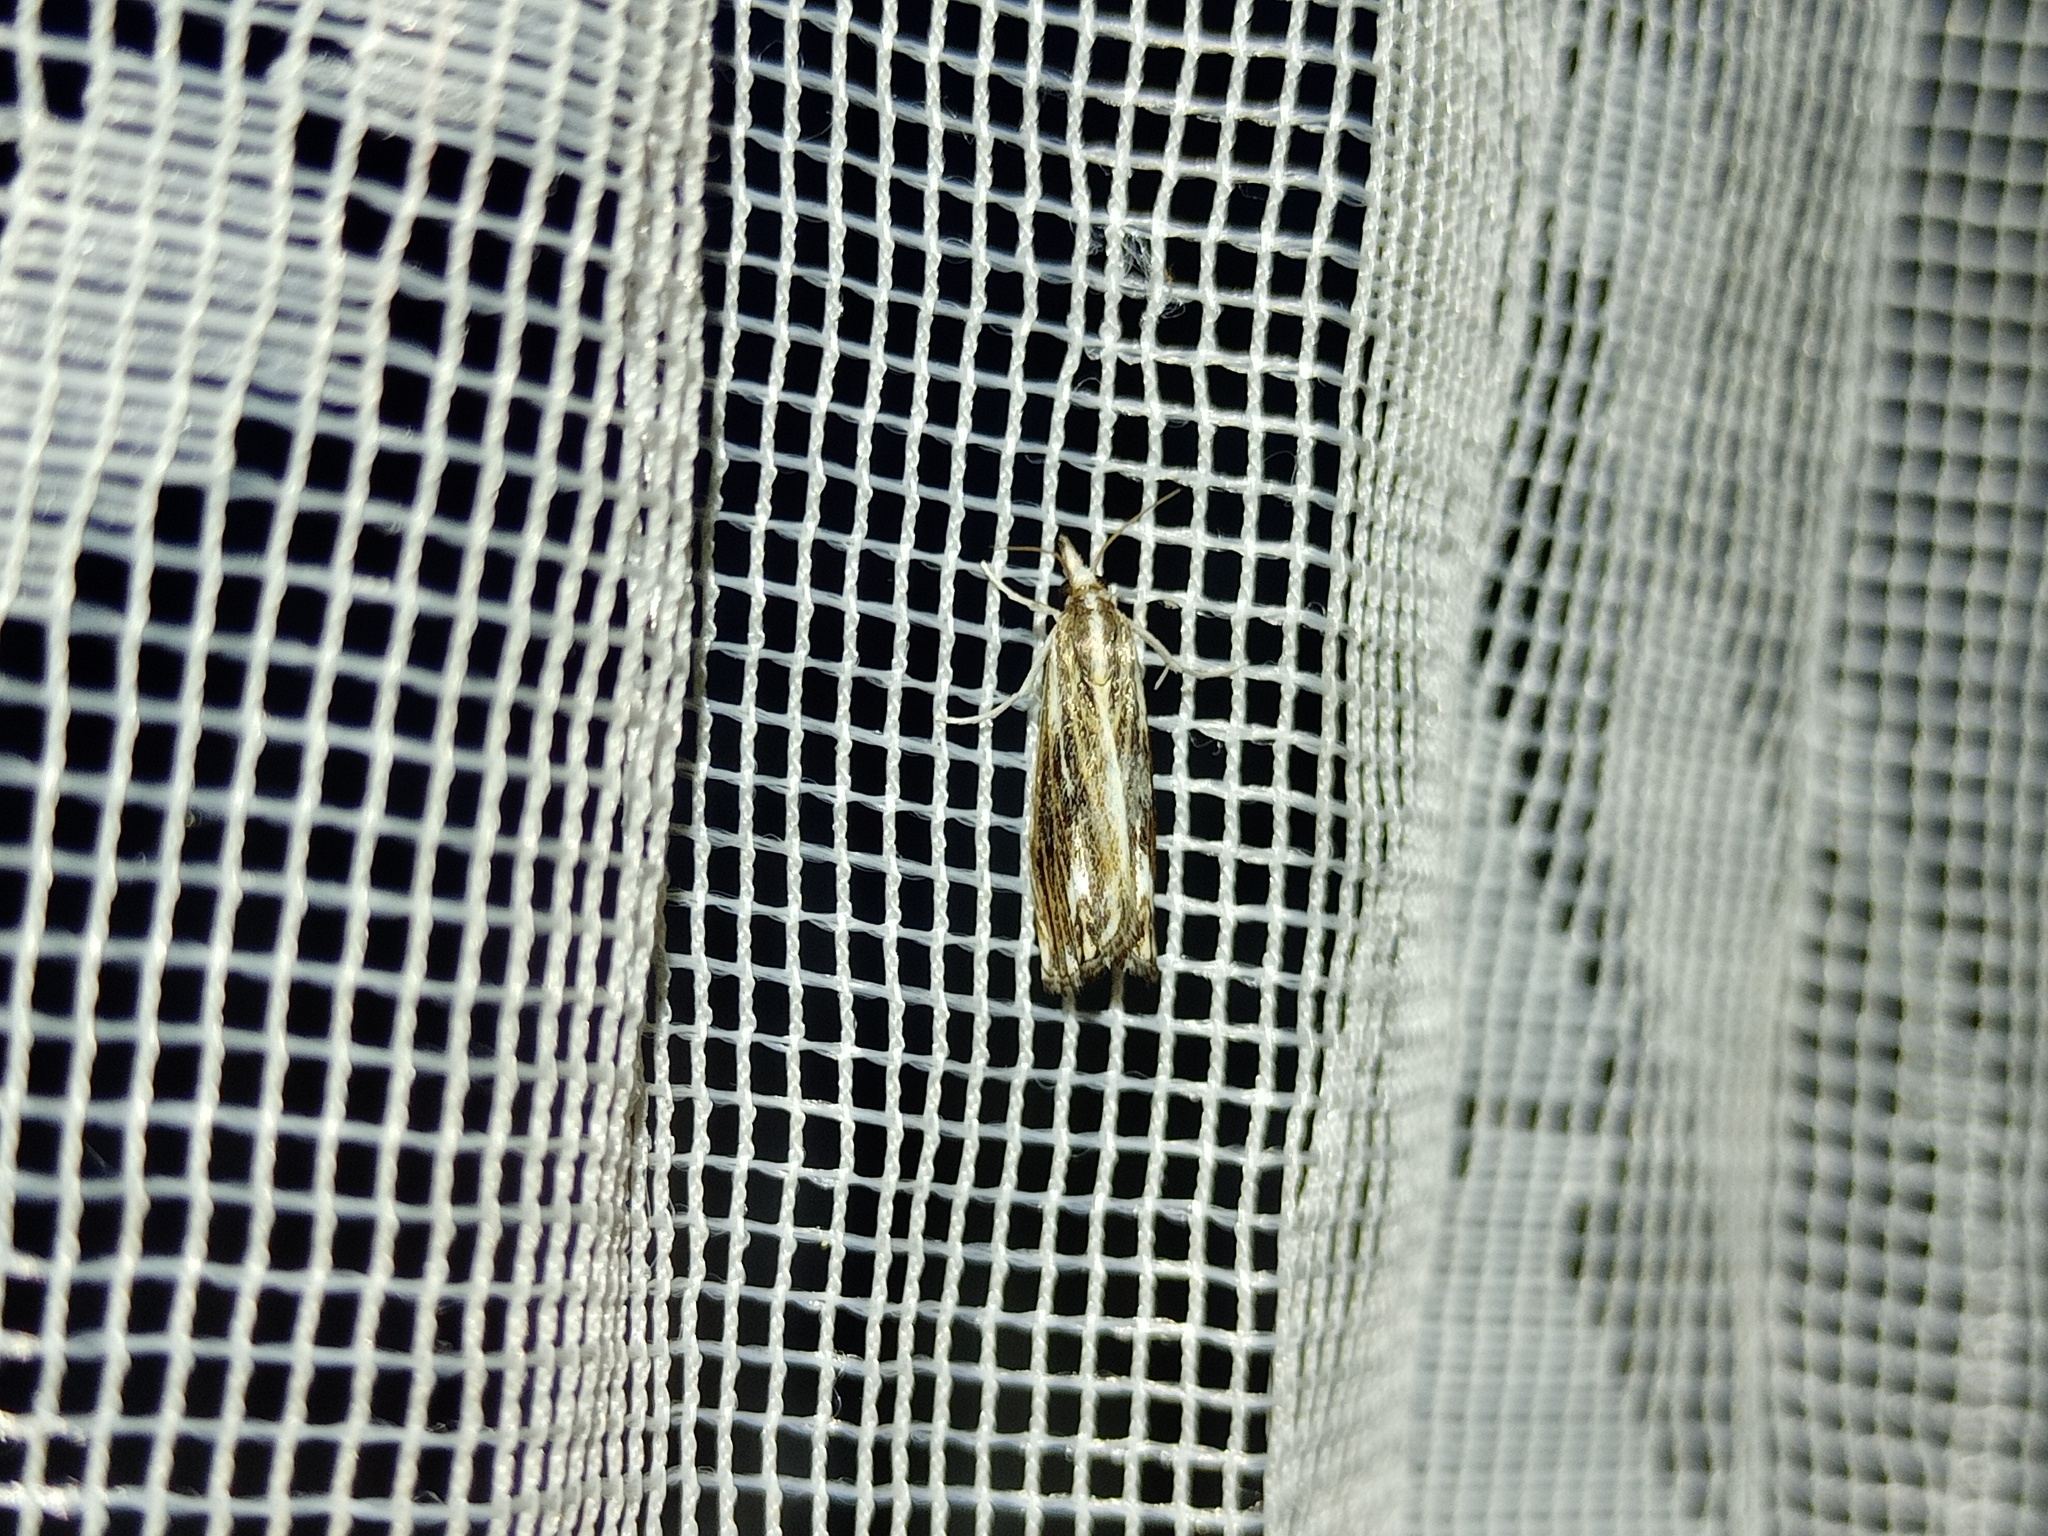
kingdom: Animalia
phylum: Arthropoda
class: Insecta
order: Lepidoptera
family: Crambidae
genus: Catoptria
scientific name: Catoptria verellus
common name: Marbled grass-veneer
